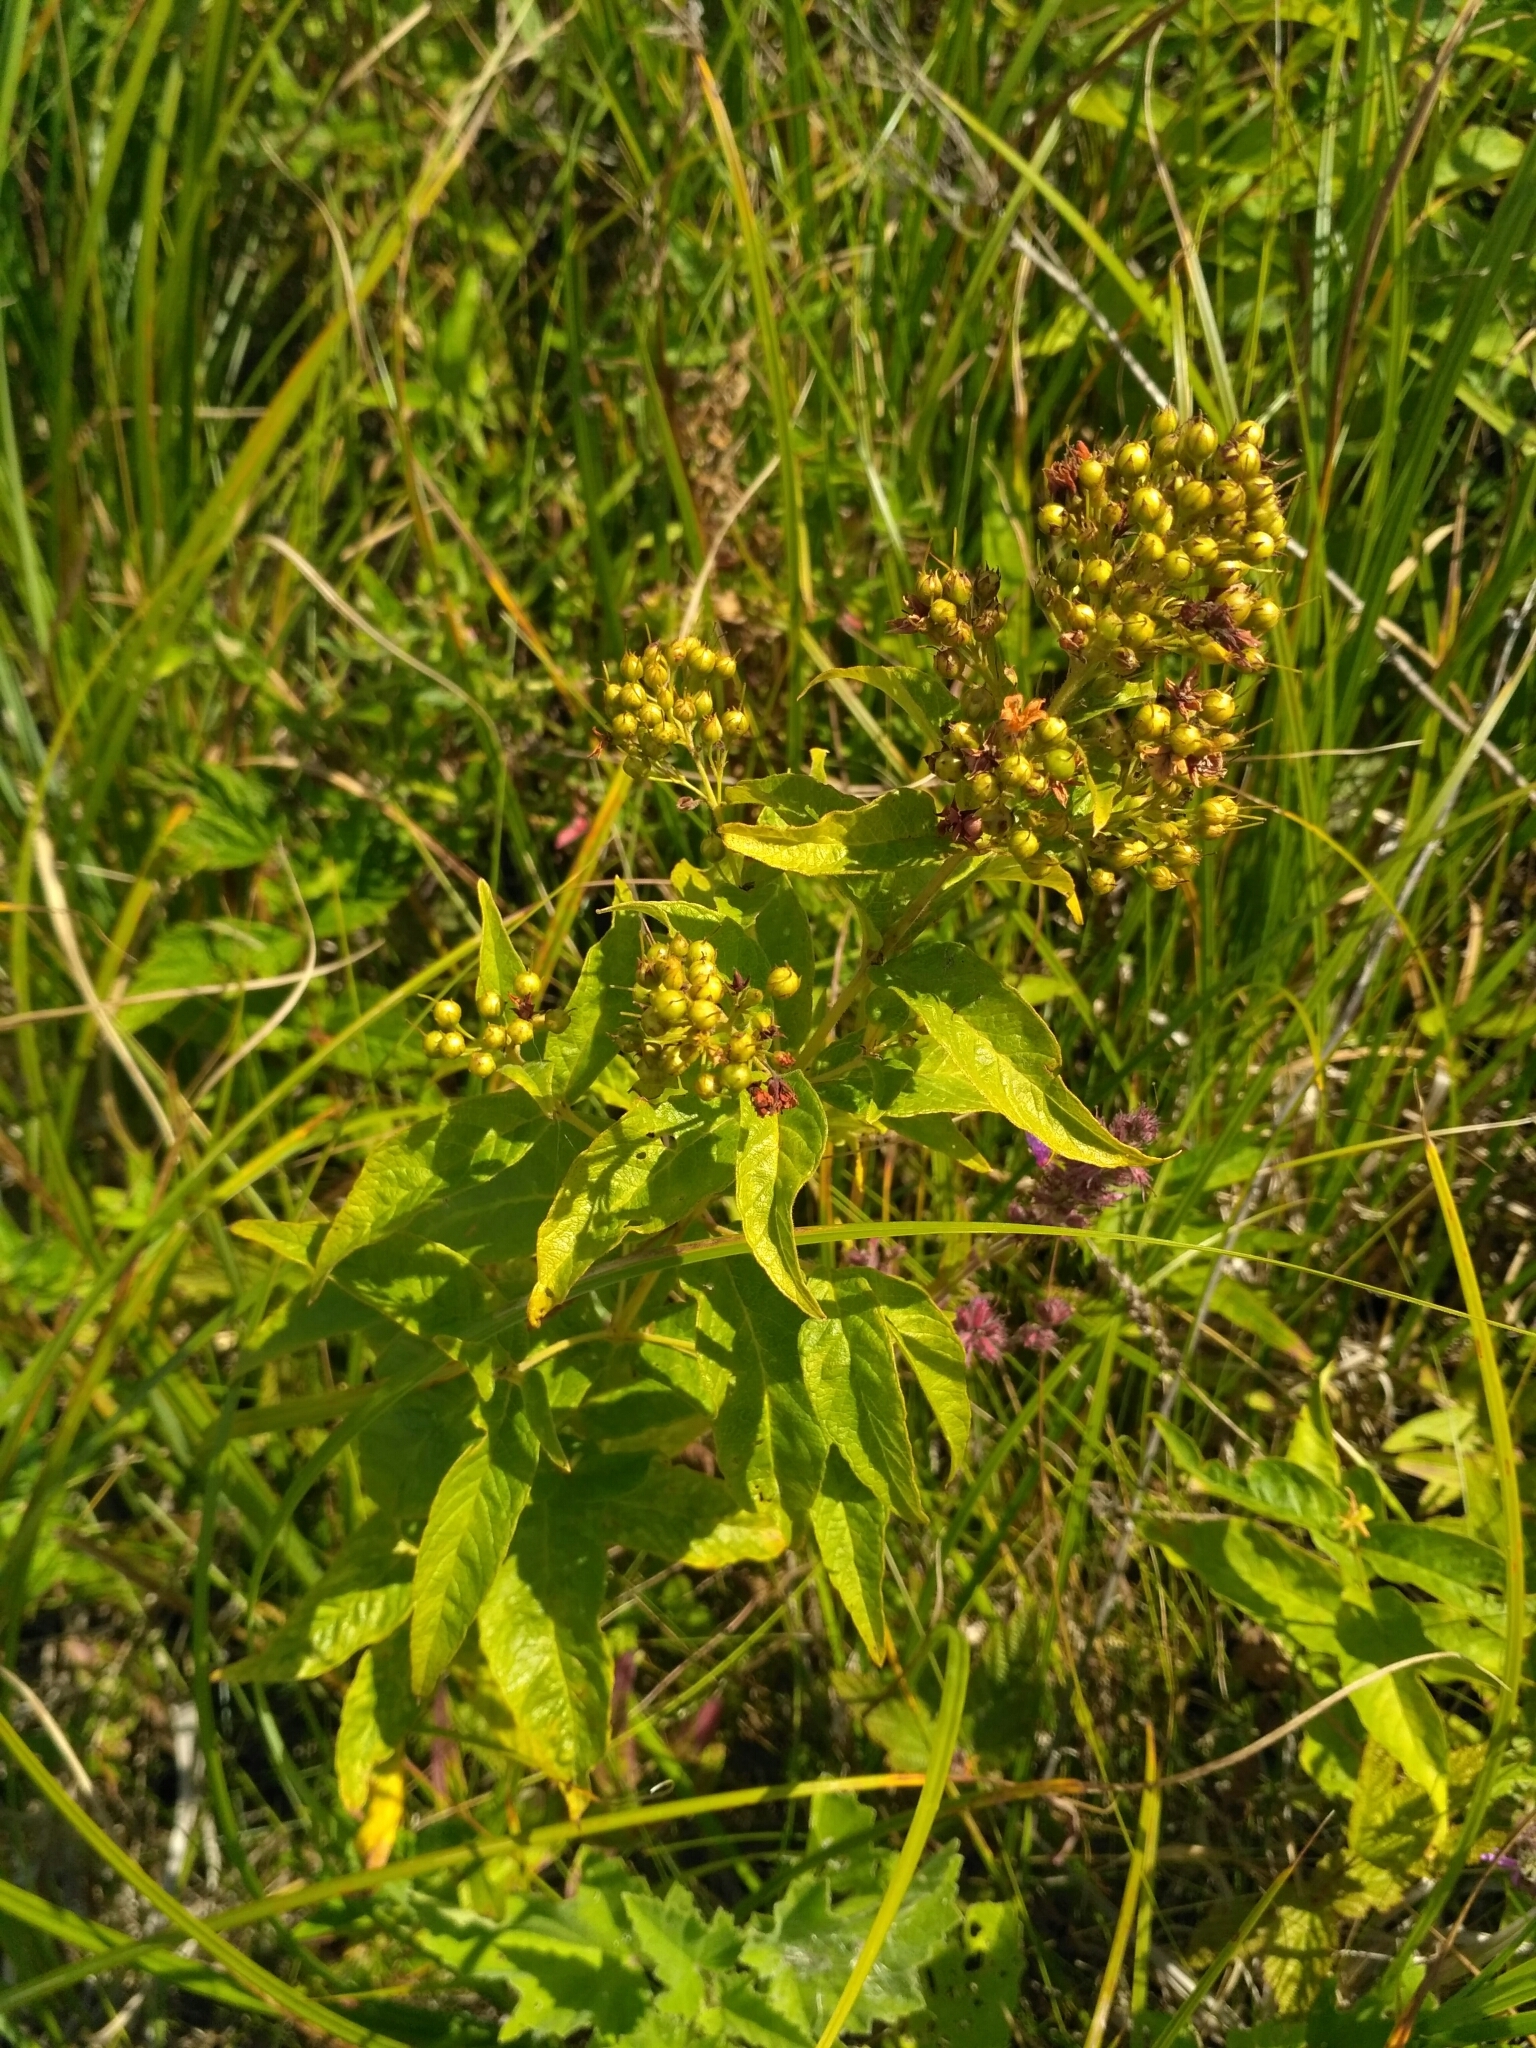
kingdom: Plantae
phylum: Tracheophyta
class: Magnoliopsida
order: Ericales
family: Primulaceae
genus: Lysimachia
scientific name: Lysimachia vulgaris
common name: Yellow loosestrife
